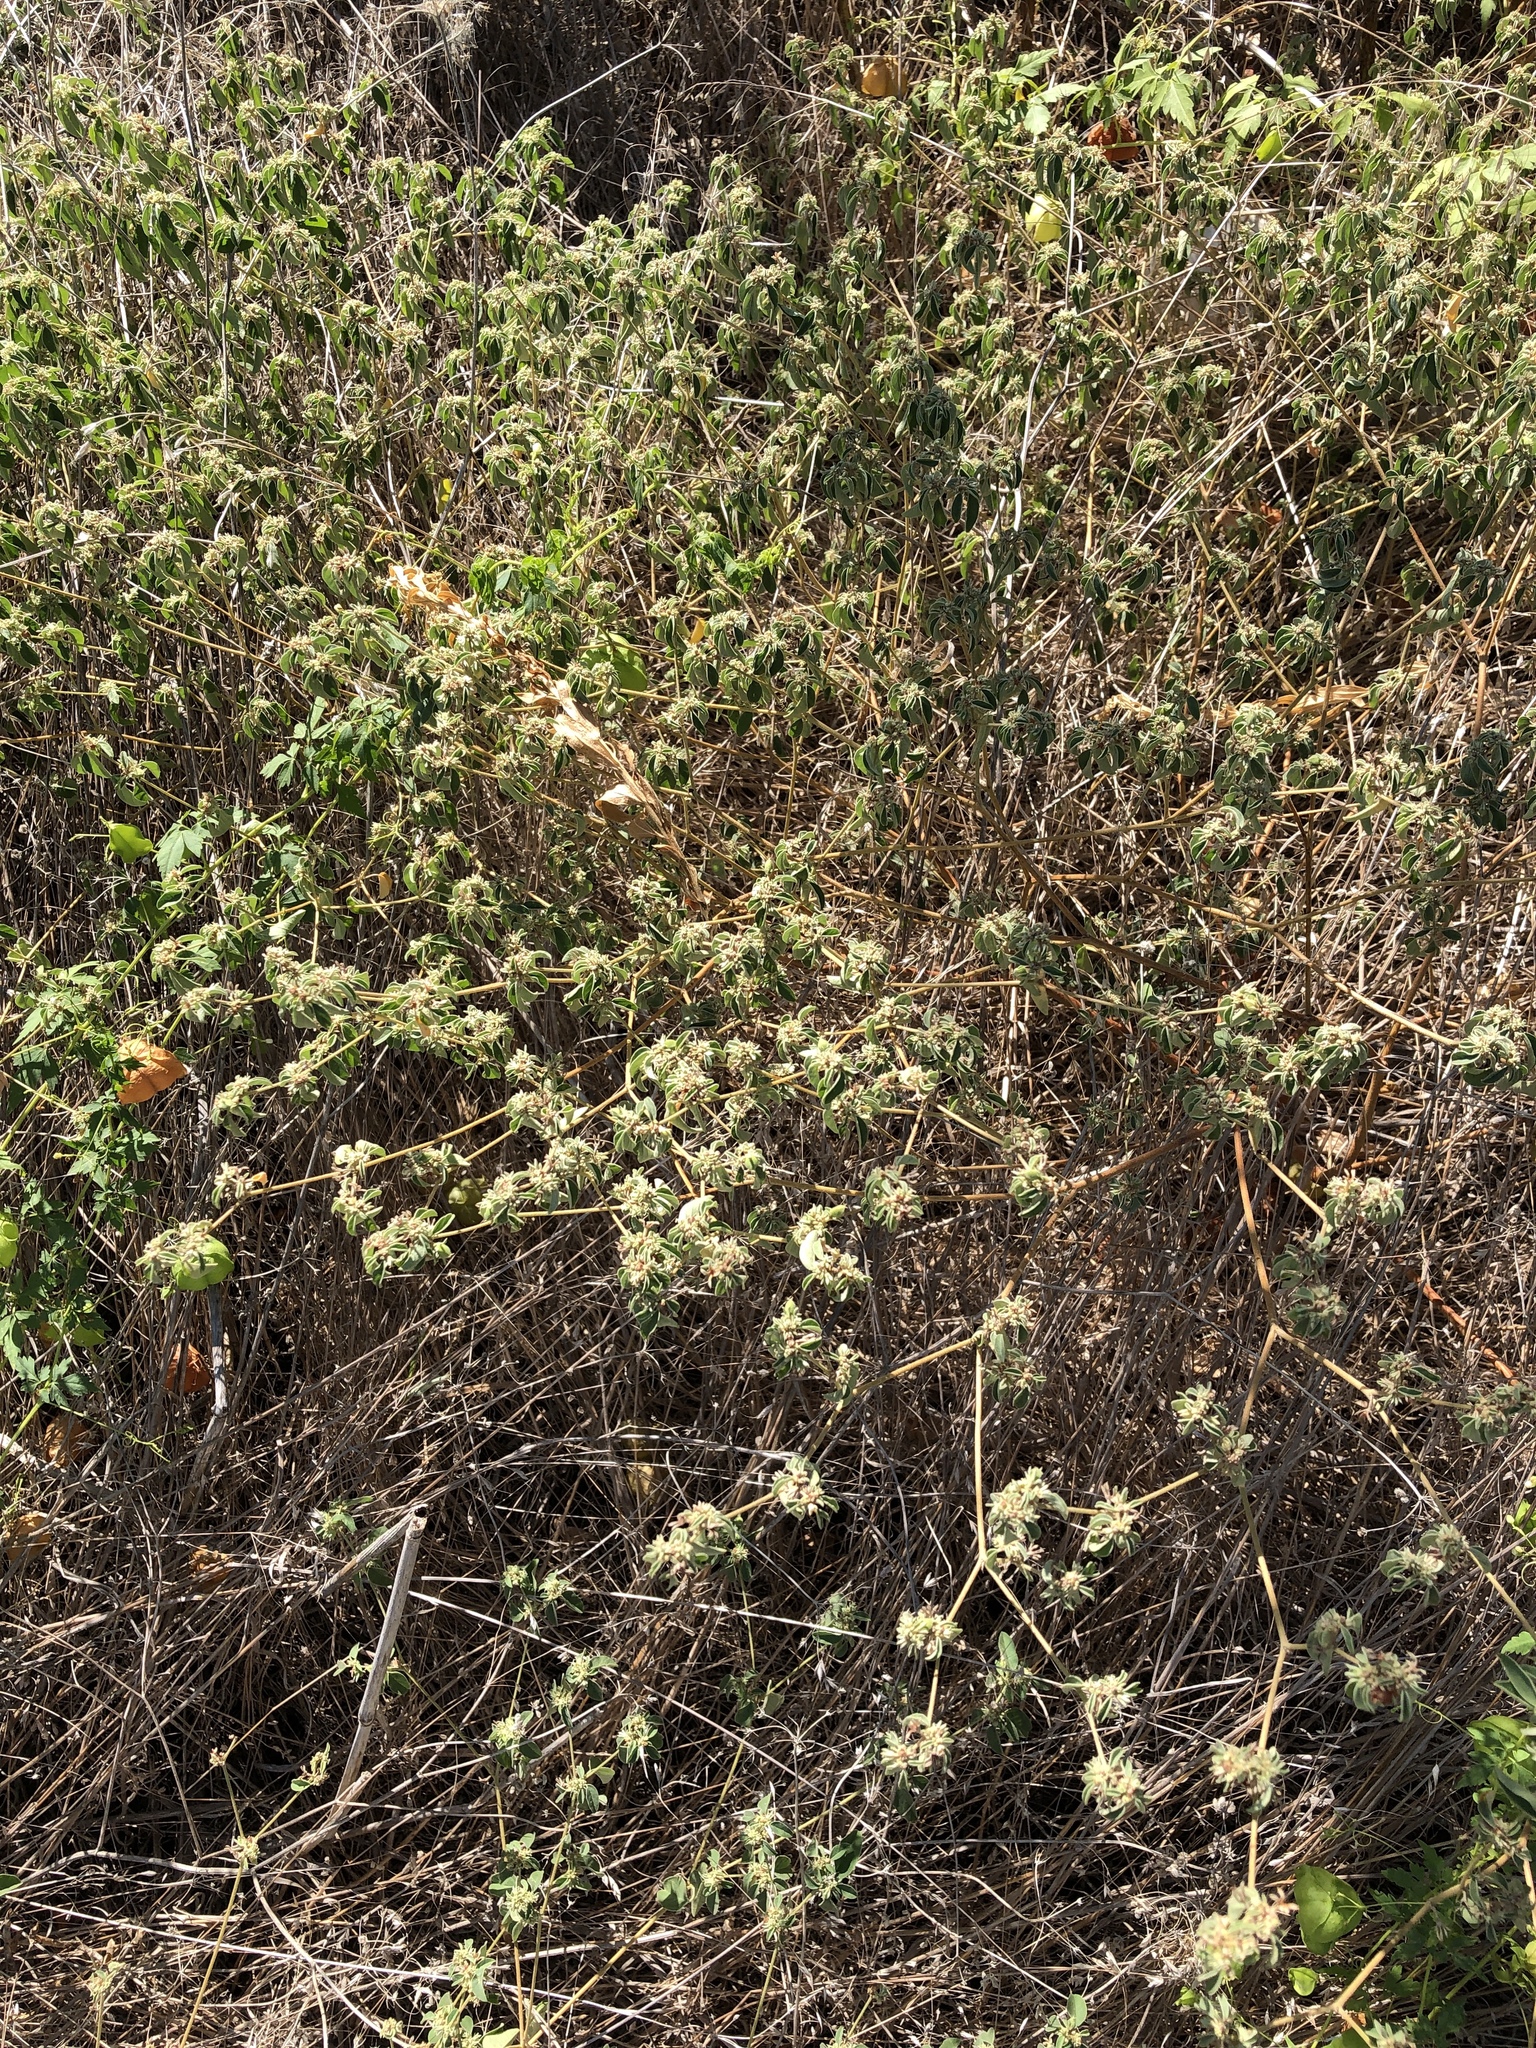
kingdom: Plantae
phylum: Tracheophyta
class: Magnoliopsida
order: Malpighiales
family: Euphorbiaceae
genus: Croton
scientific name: Croton monanthogynus
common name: One-seed croton
